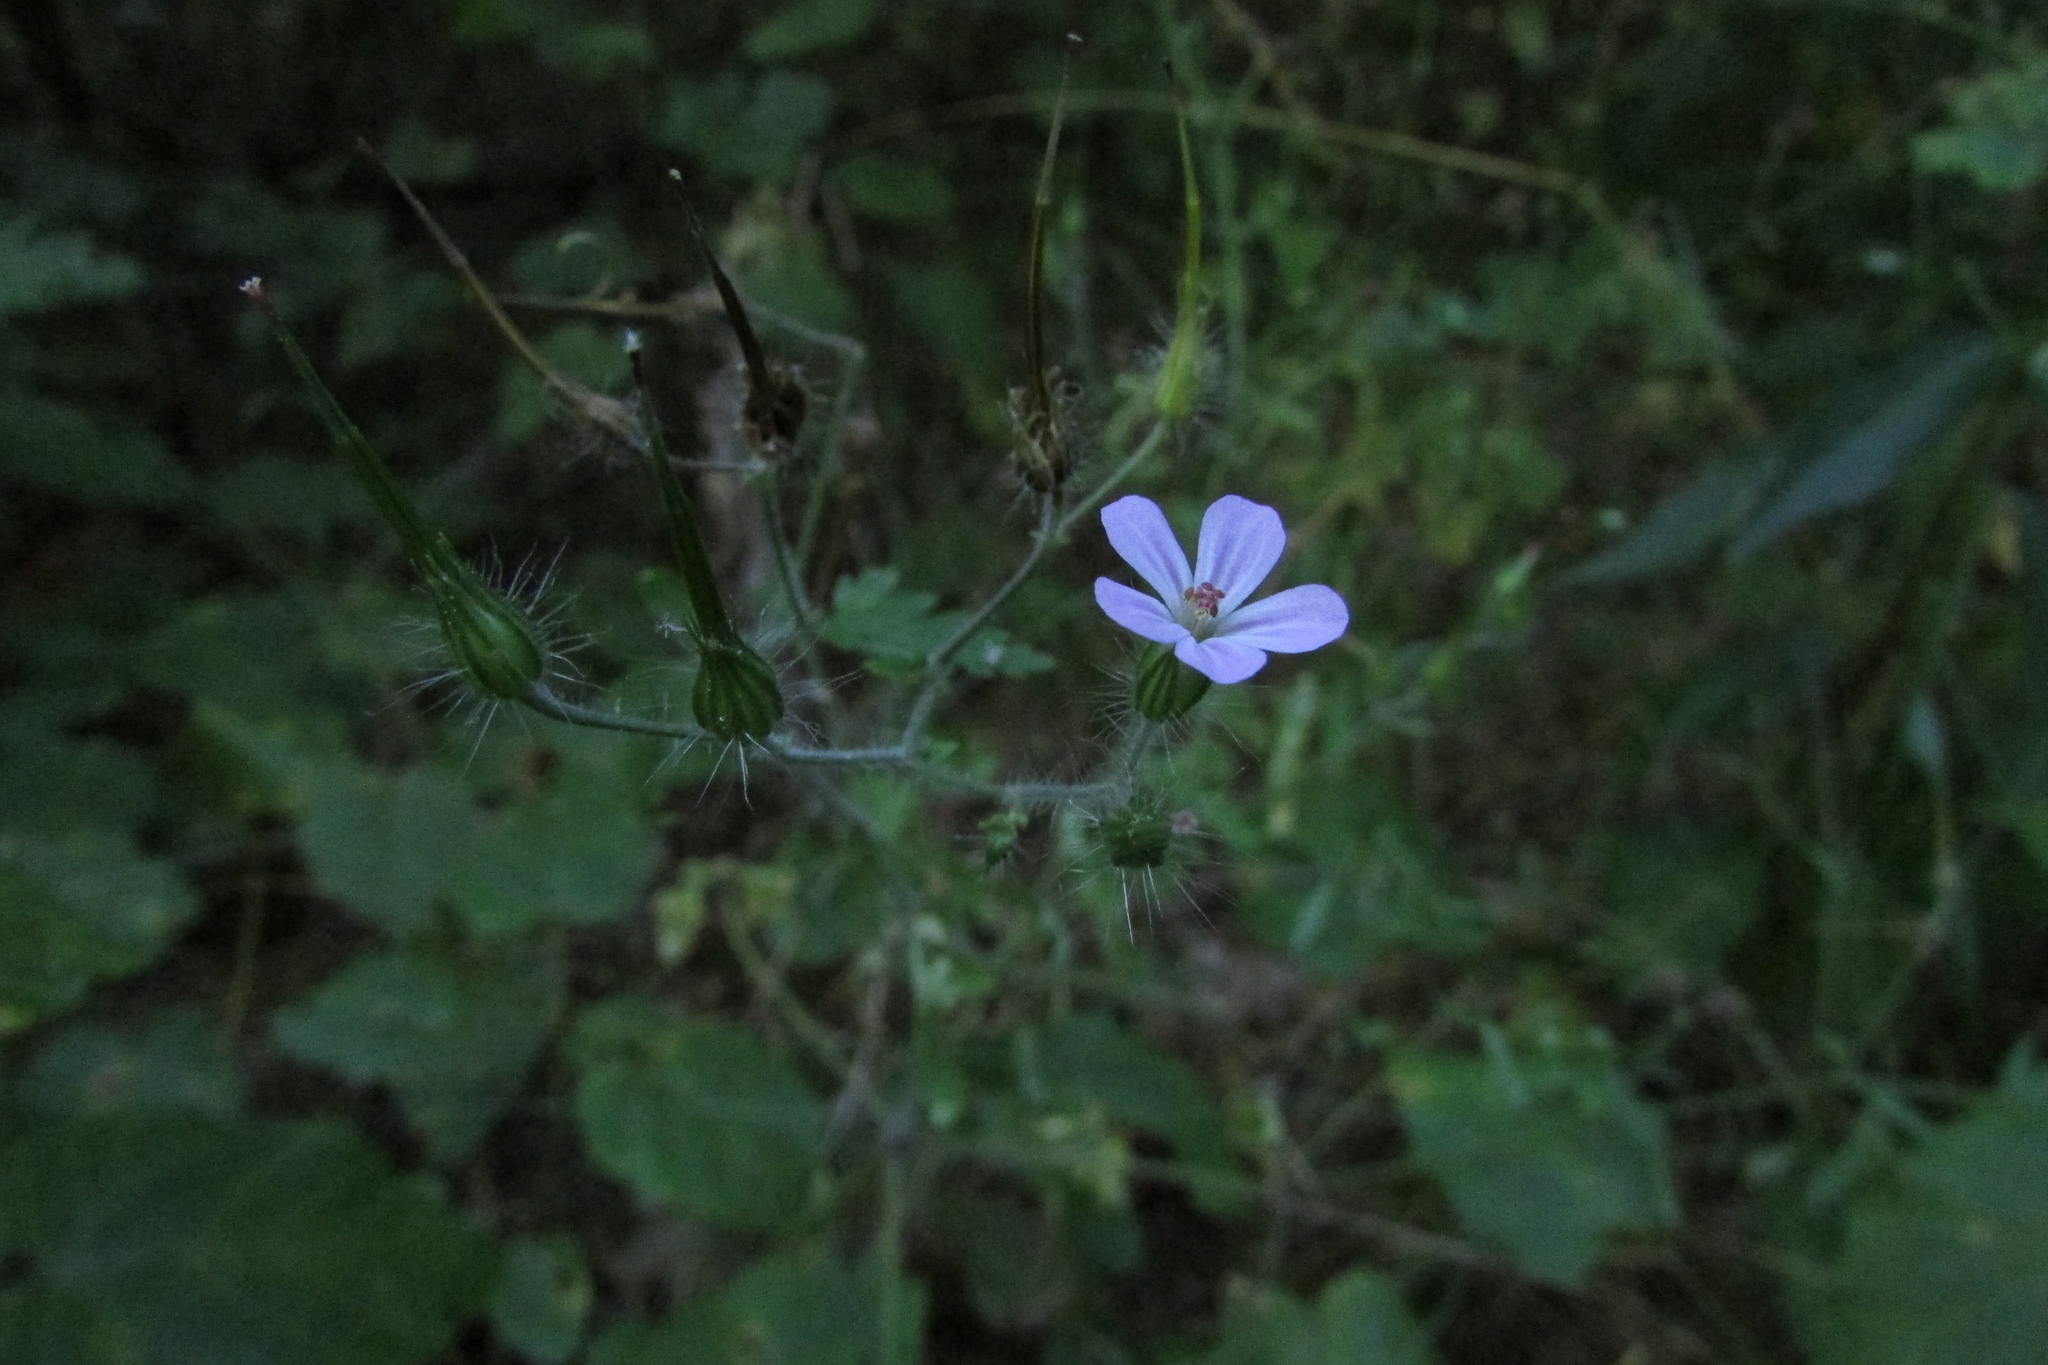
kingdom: Plantae
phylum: Tracheophyta
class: Magnoliopsida
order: Geraniales
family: Geraniaceae
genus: Geranium
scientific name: Geranium robertianum
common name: Herb-robert
